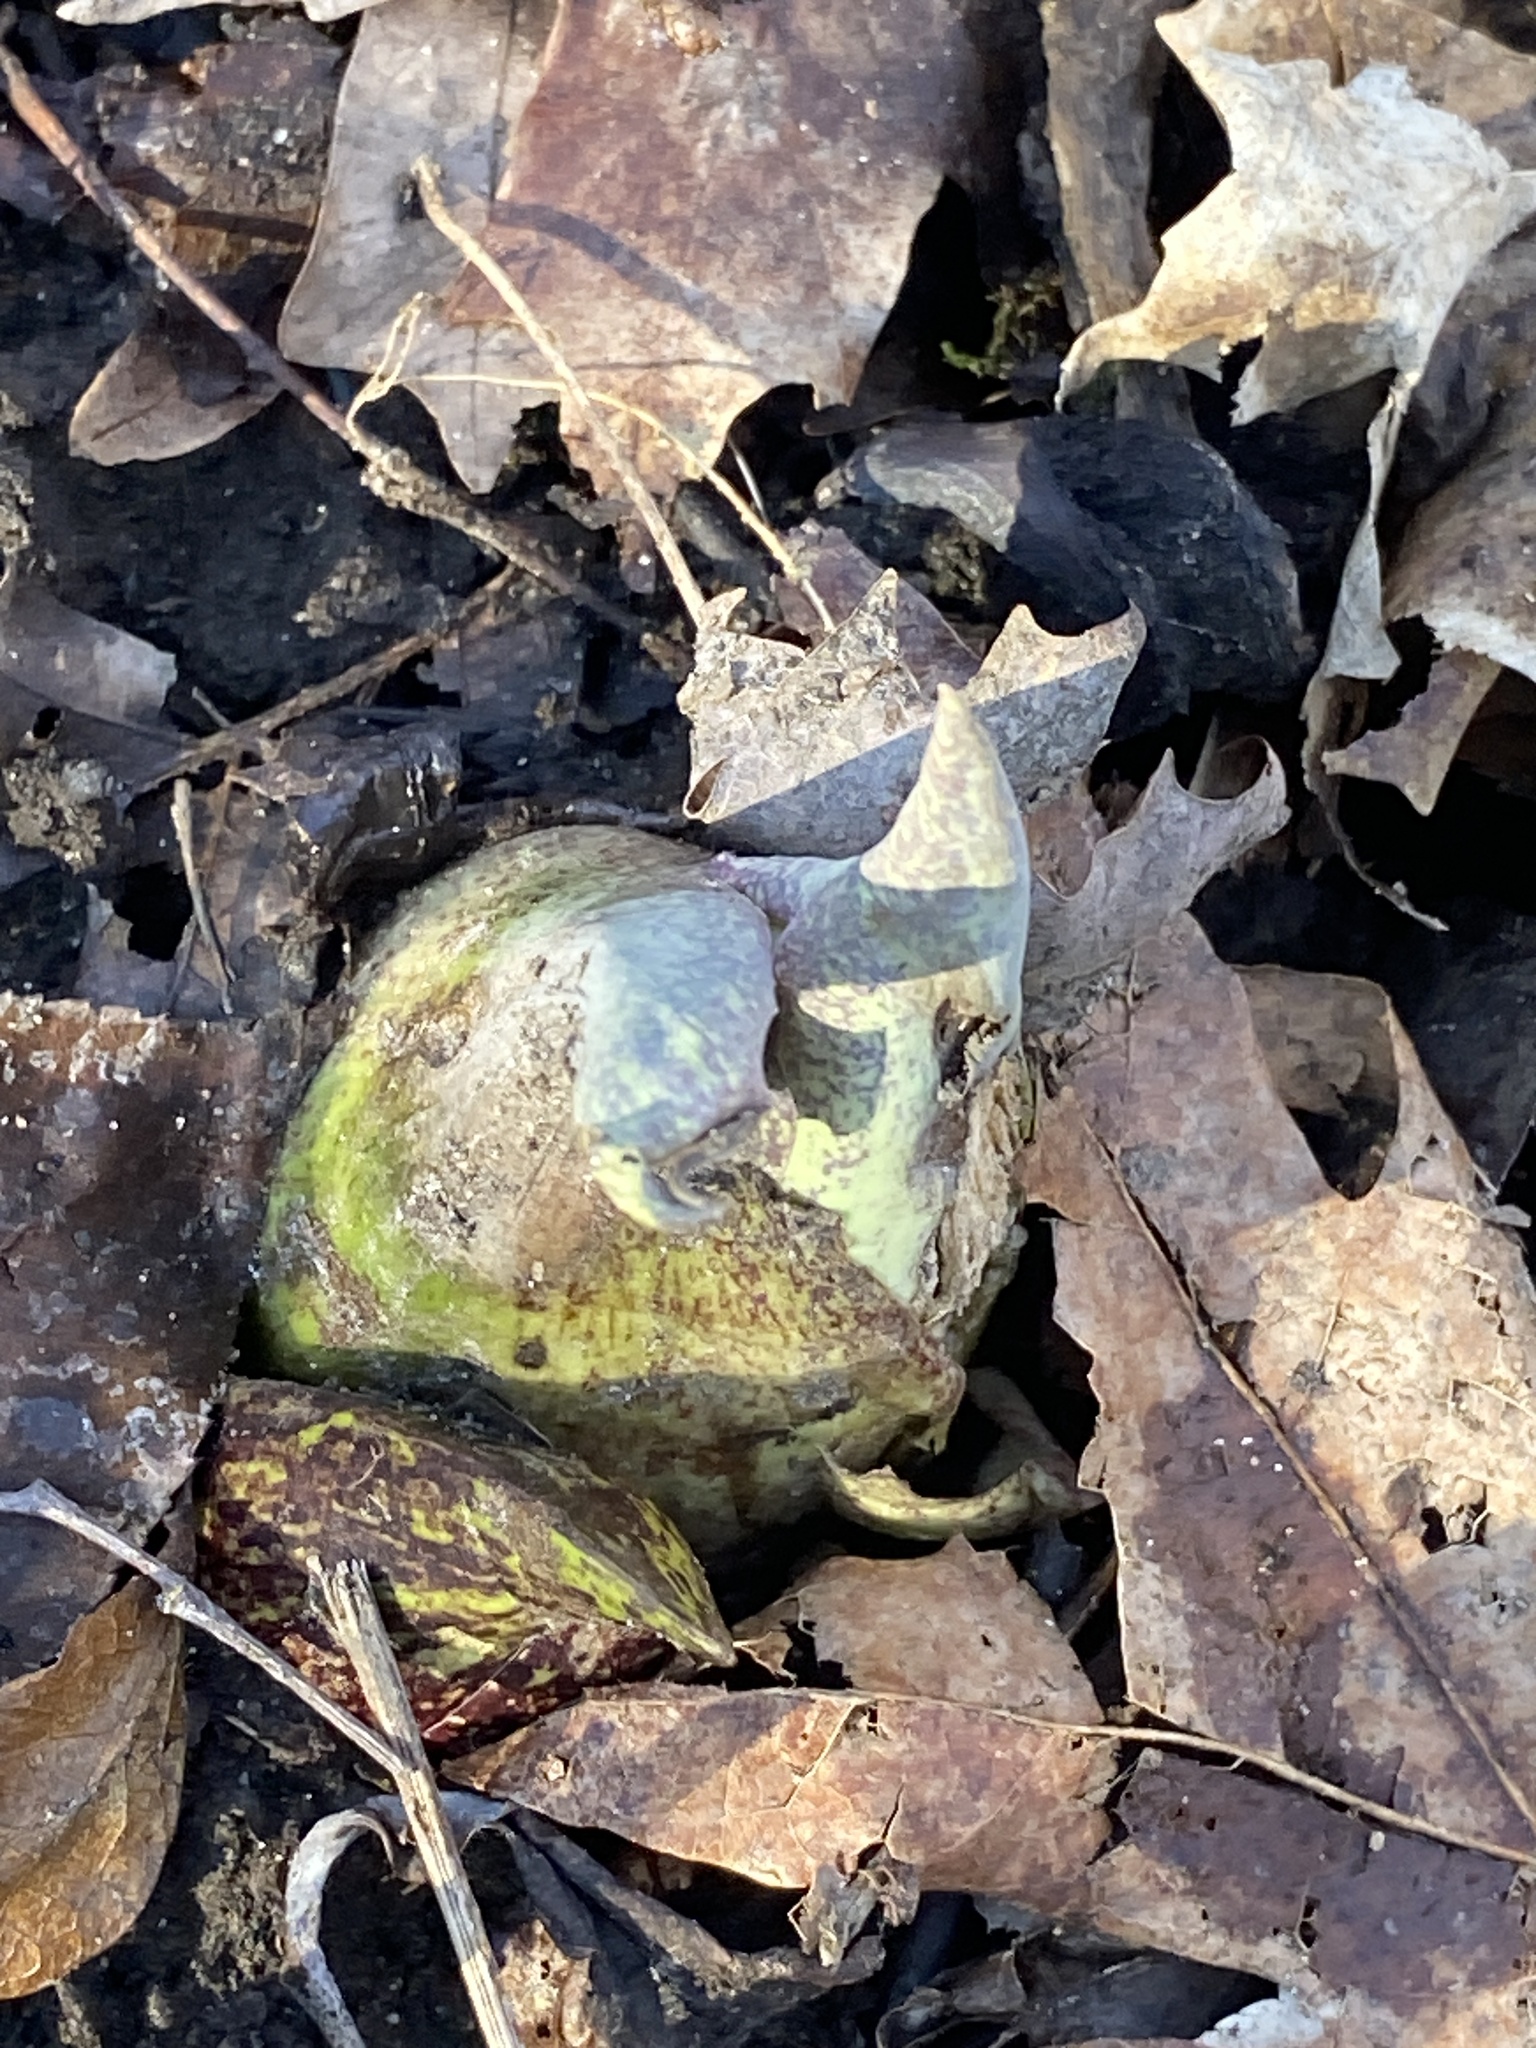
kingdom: Plantae
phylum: Tracheophyta
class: Liliopsida
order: Alismatales
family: Araceae
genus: Symplocarpus
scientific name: Symplocarpus foetidus
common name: Eastern skunk cabbage
